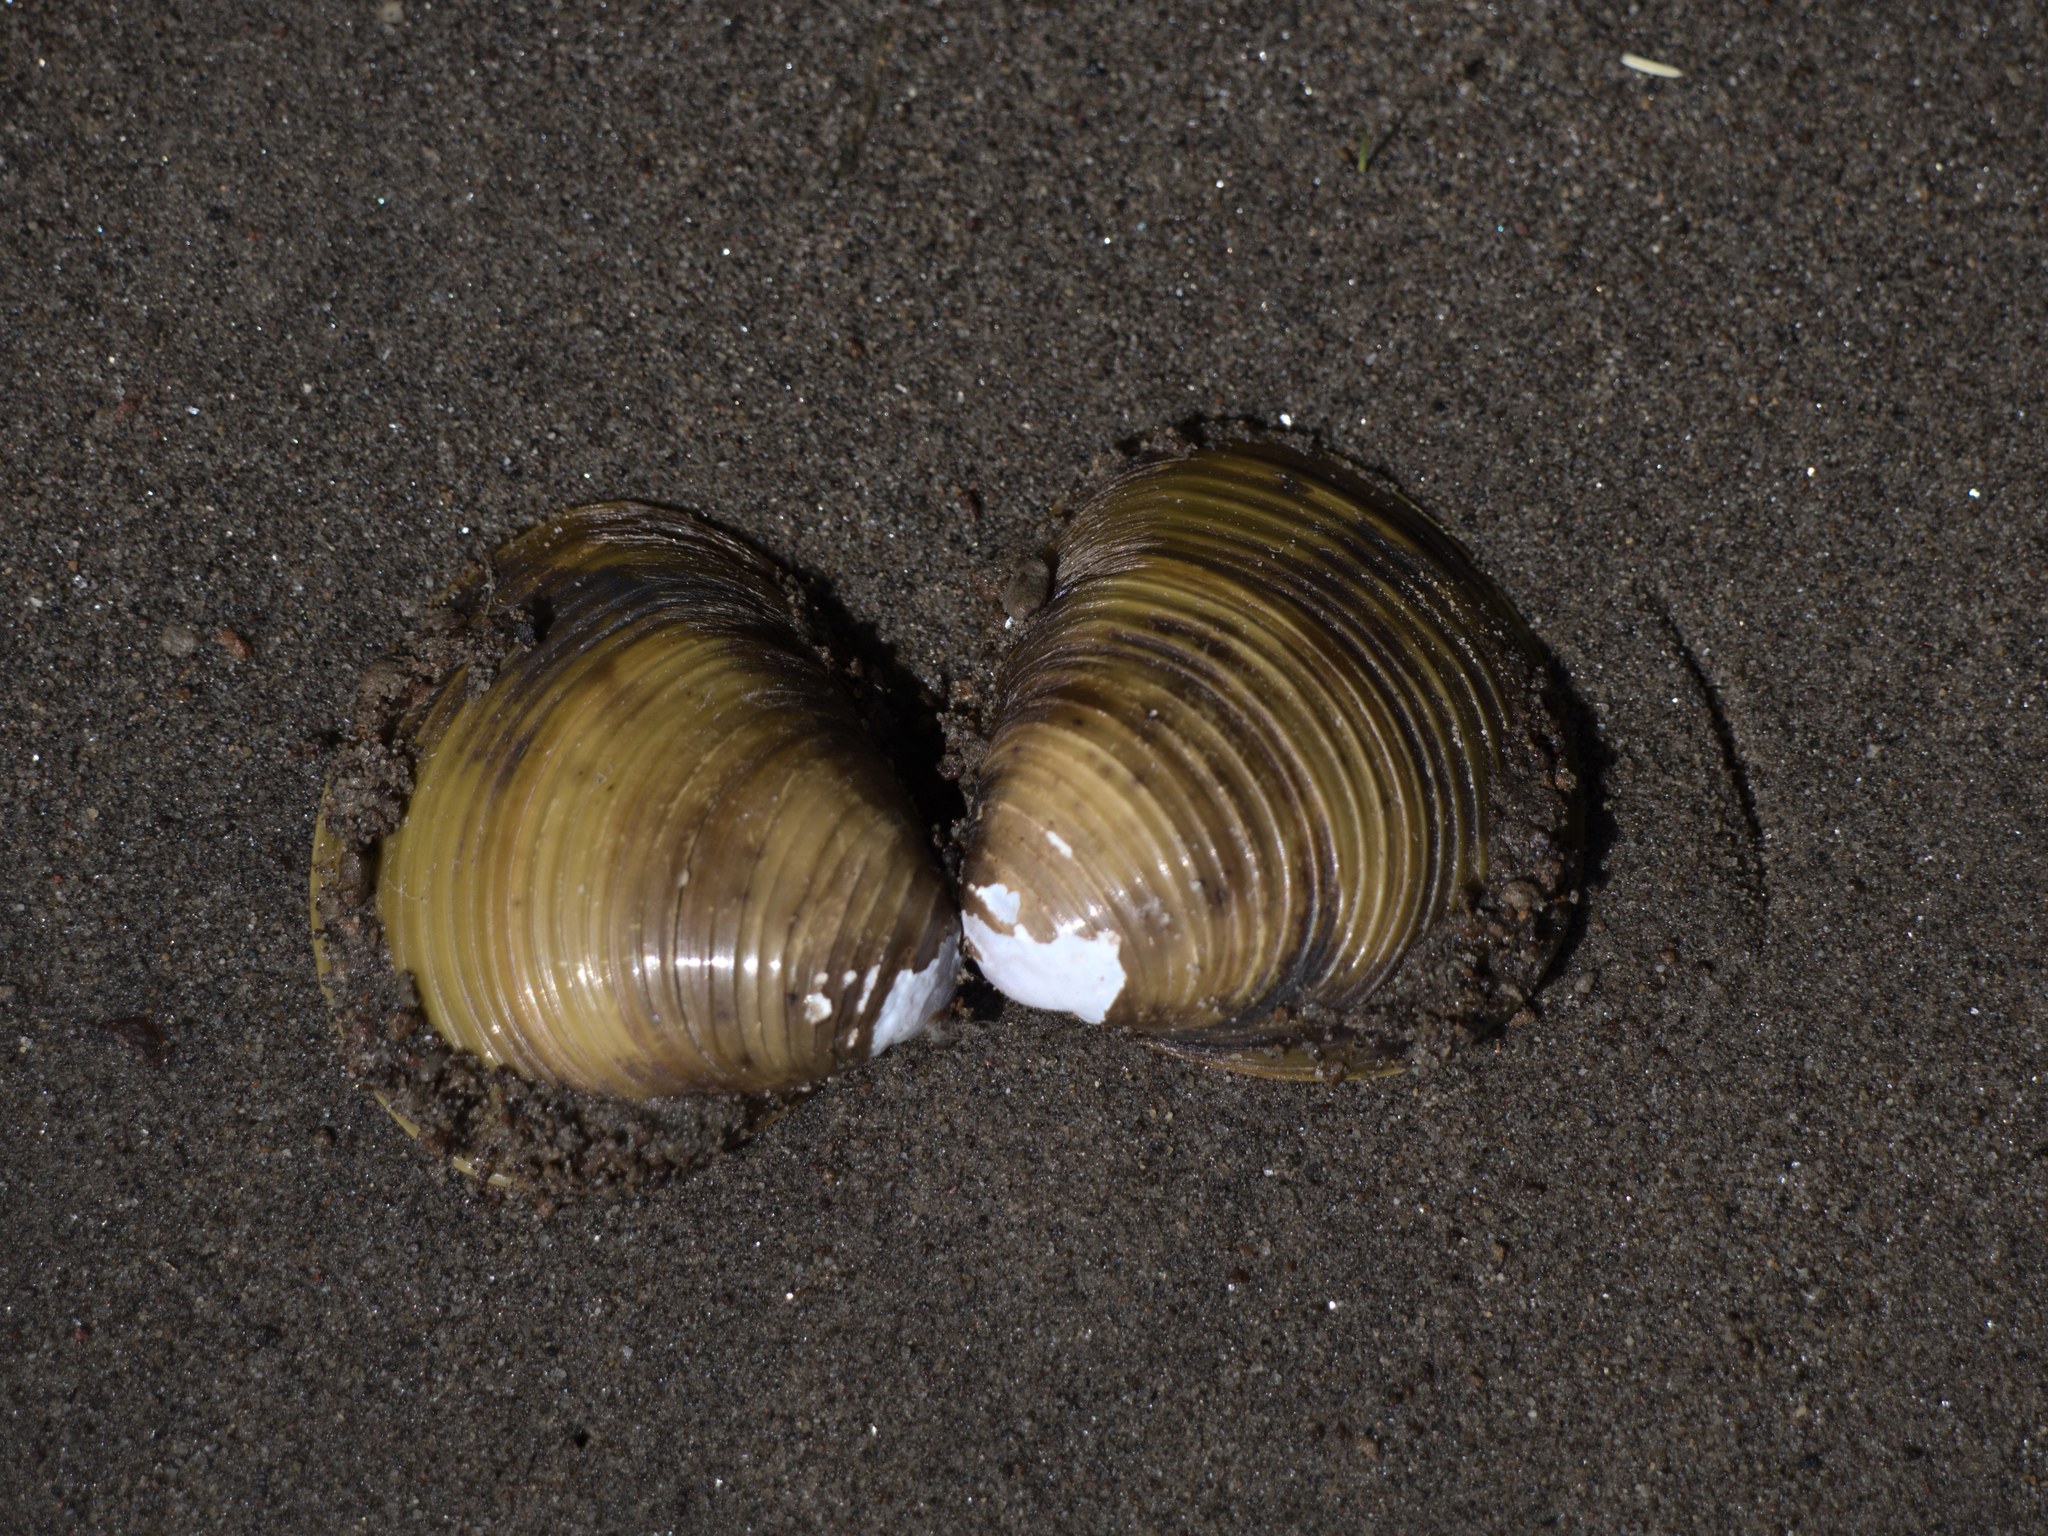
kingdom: Animalia
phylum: Mollusca
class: Bivalvia
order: Venerida
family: Cyrenidae
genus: Corbicula
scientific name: Corbicula fluminea
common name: Asian clam
